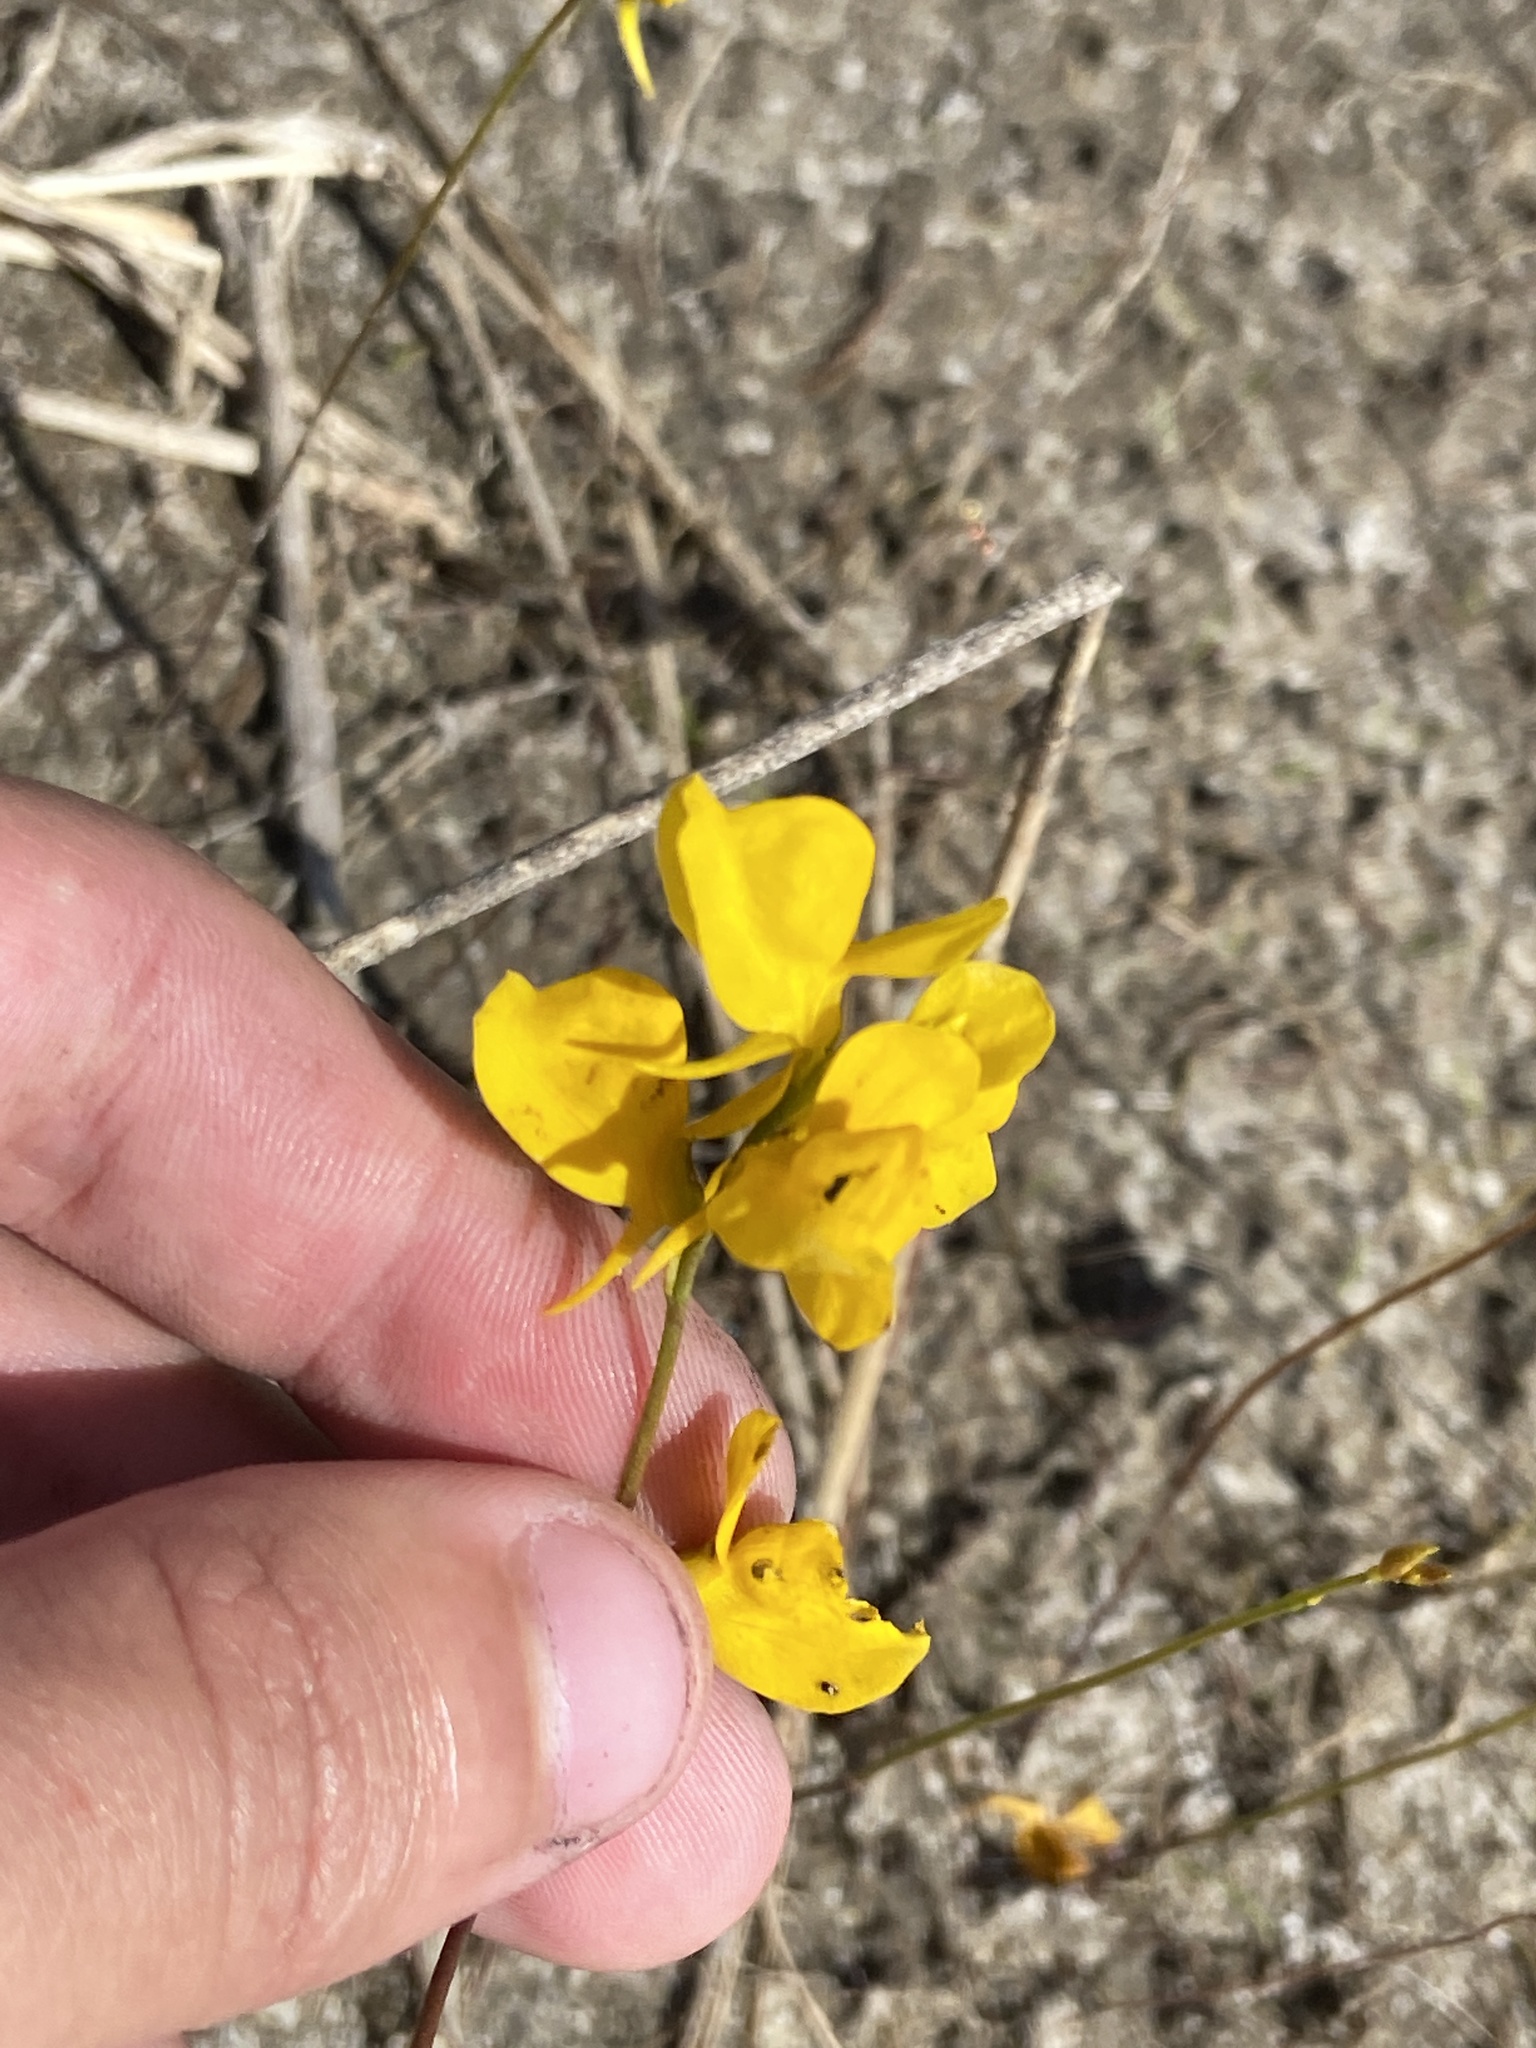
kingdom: Plantae
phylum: Tracheophyta
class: Magnoliopsida
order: Lamiales
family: Lentibulariaceae
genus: Utricularia
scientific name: Utricularia cornuta
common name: Horned bladderwort
